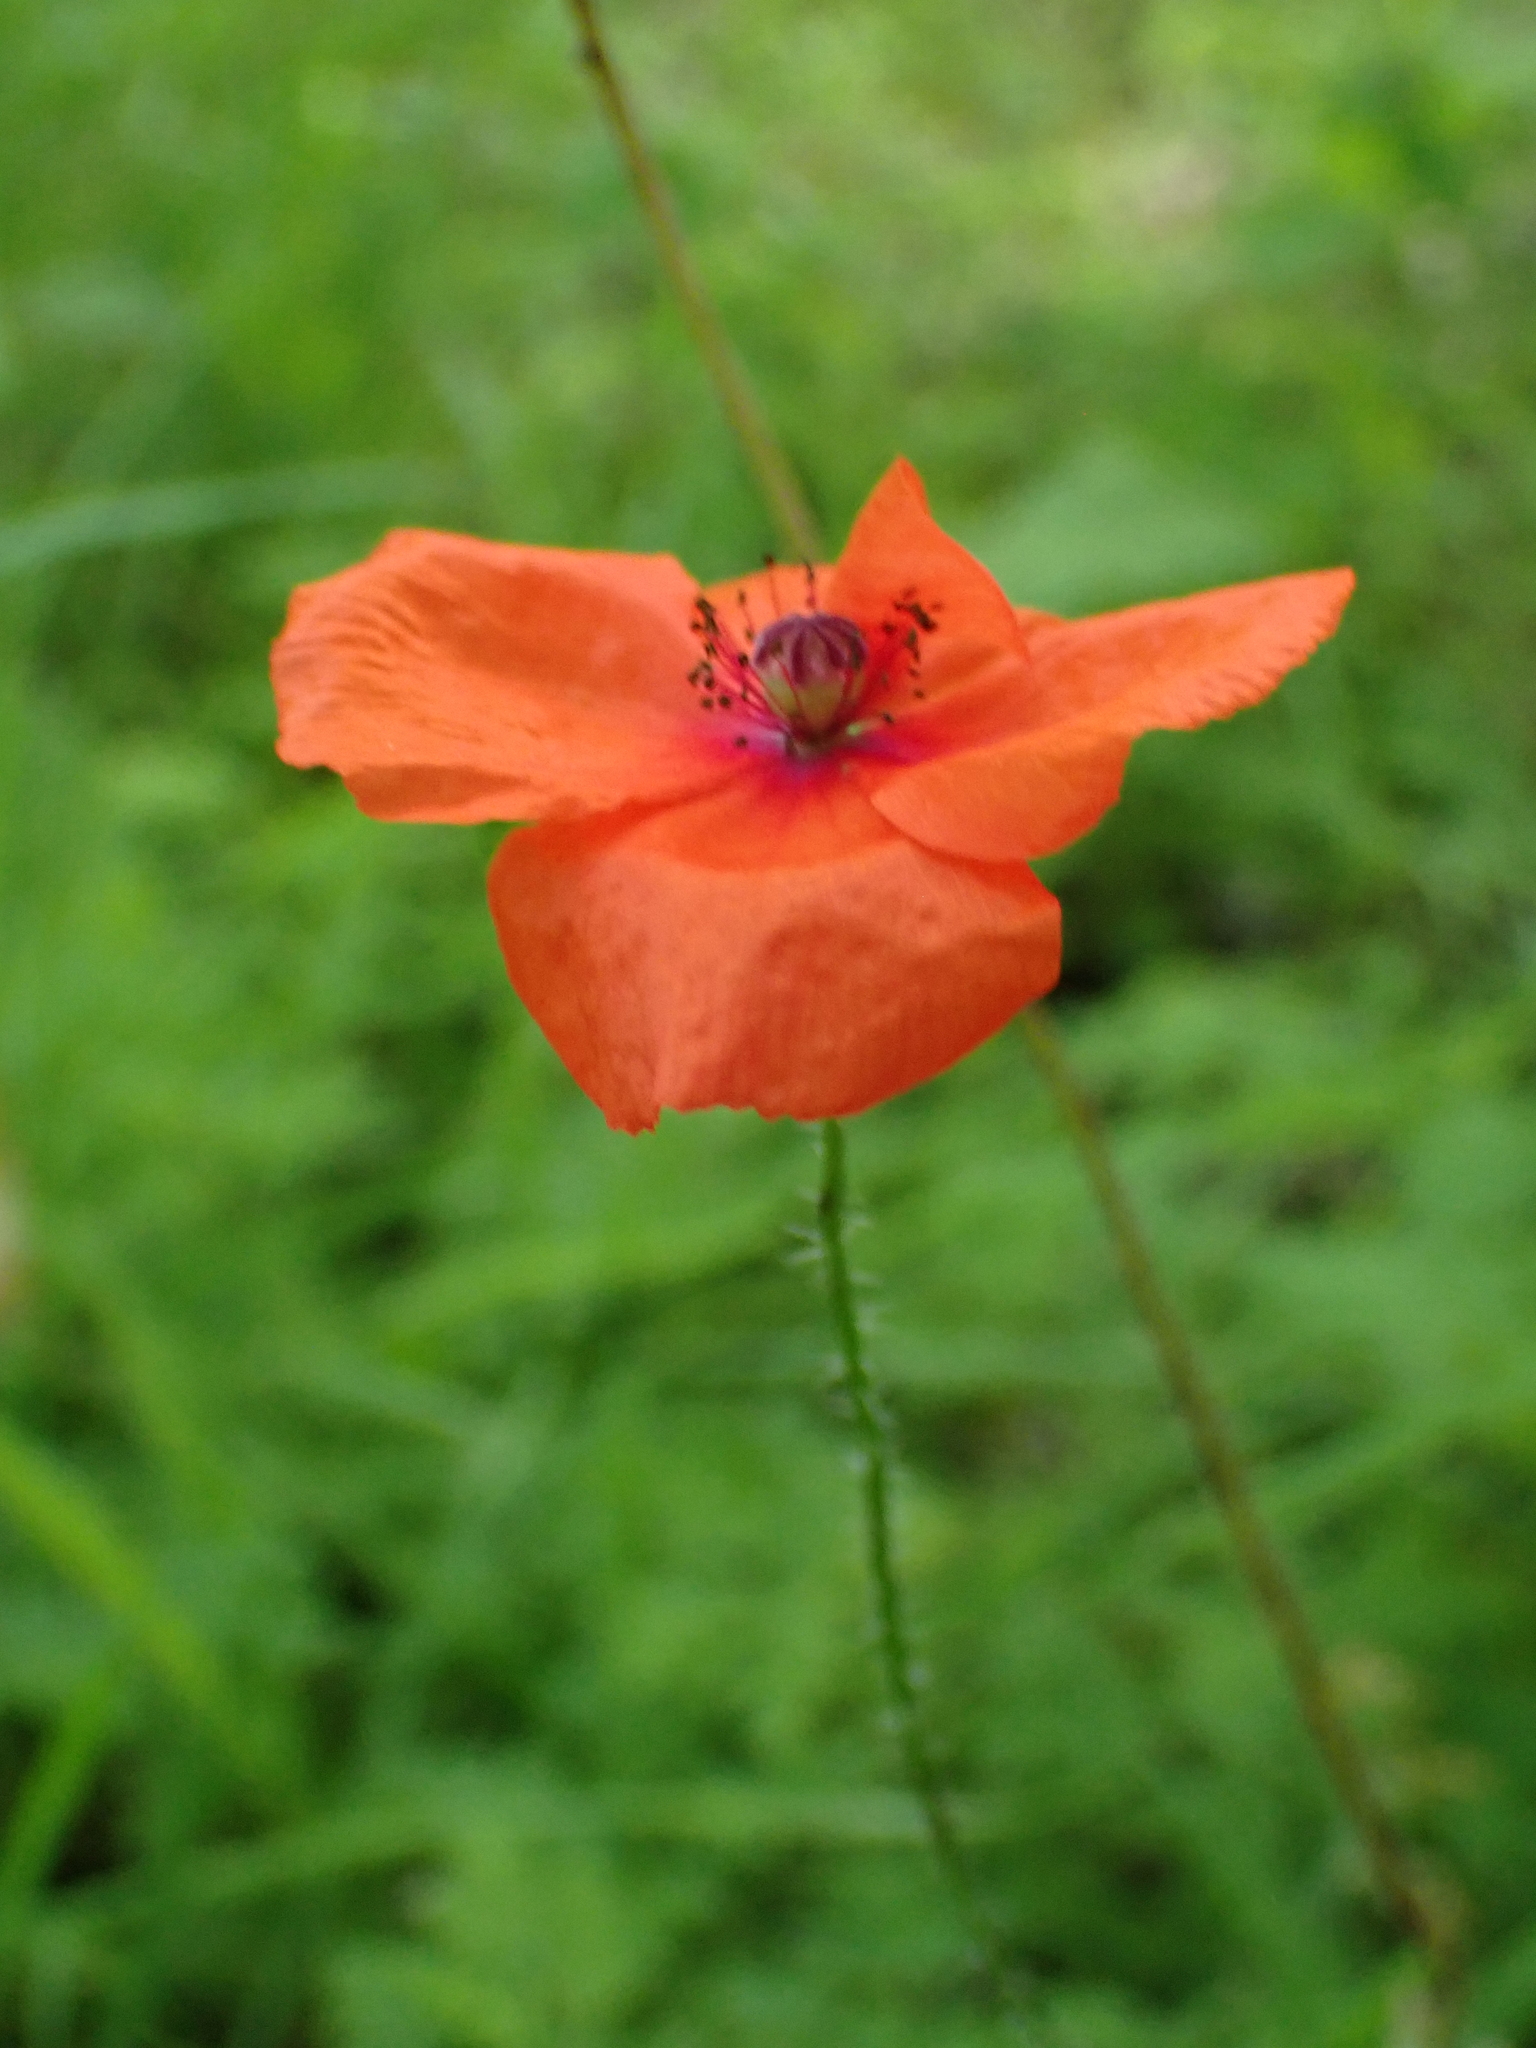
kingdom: Plantae
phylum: Tracheophyta
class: Magnoliopsida
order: Ranunculales
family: Papaveraceae
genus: Papaver
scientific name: Papaver rhoeas
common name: Corn poppy
